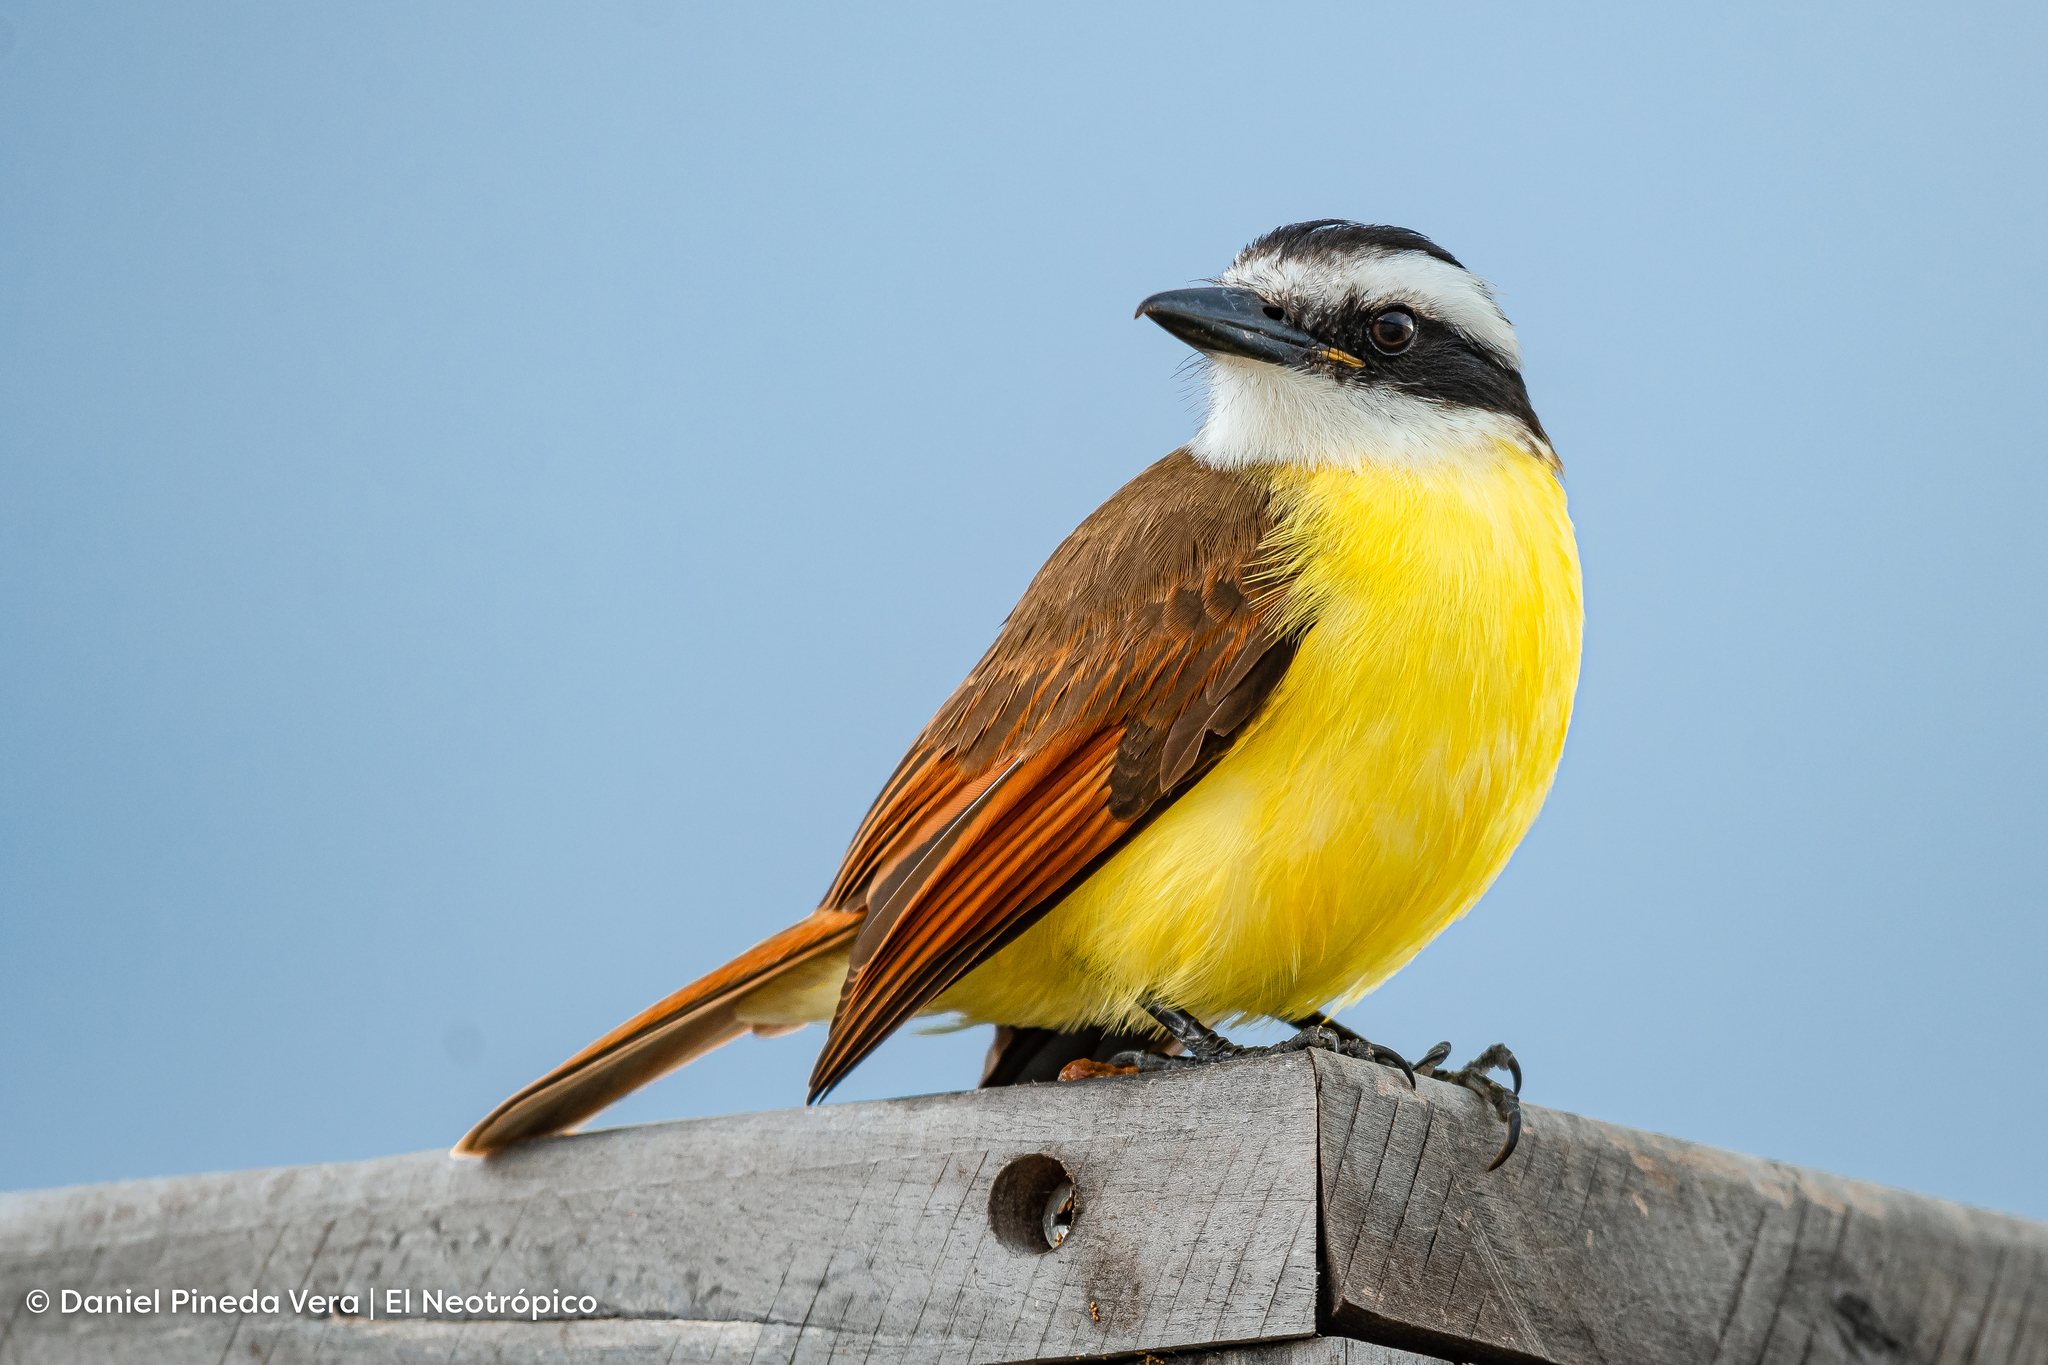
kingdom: Animalia
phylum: Chordata
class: Aves
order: Passeriformes
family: Tyrannidae
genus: Pitangus
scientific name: Pitangus sulphuratus
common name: Great kiskadee
